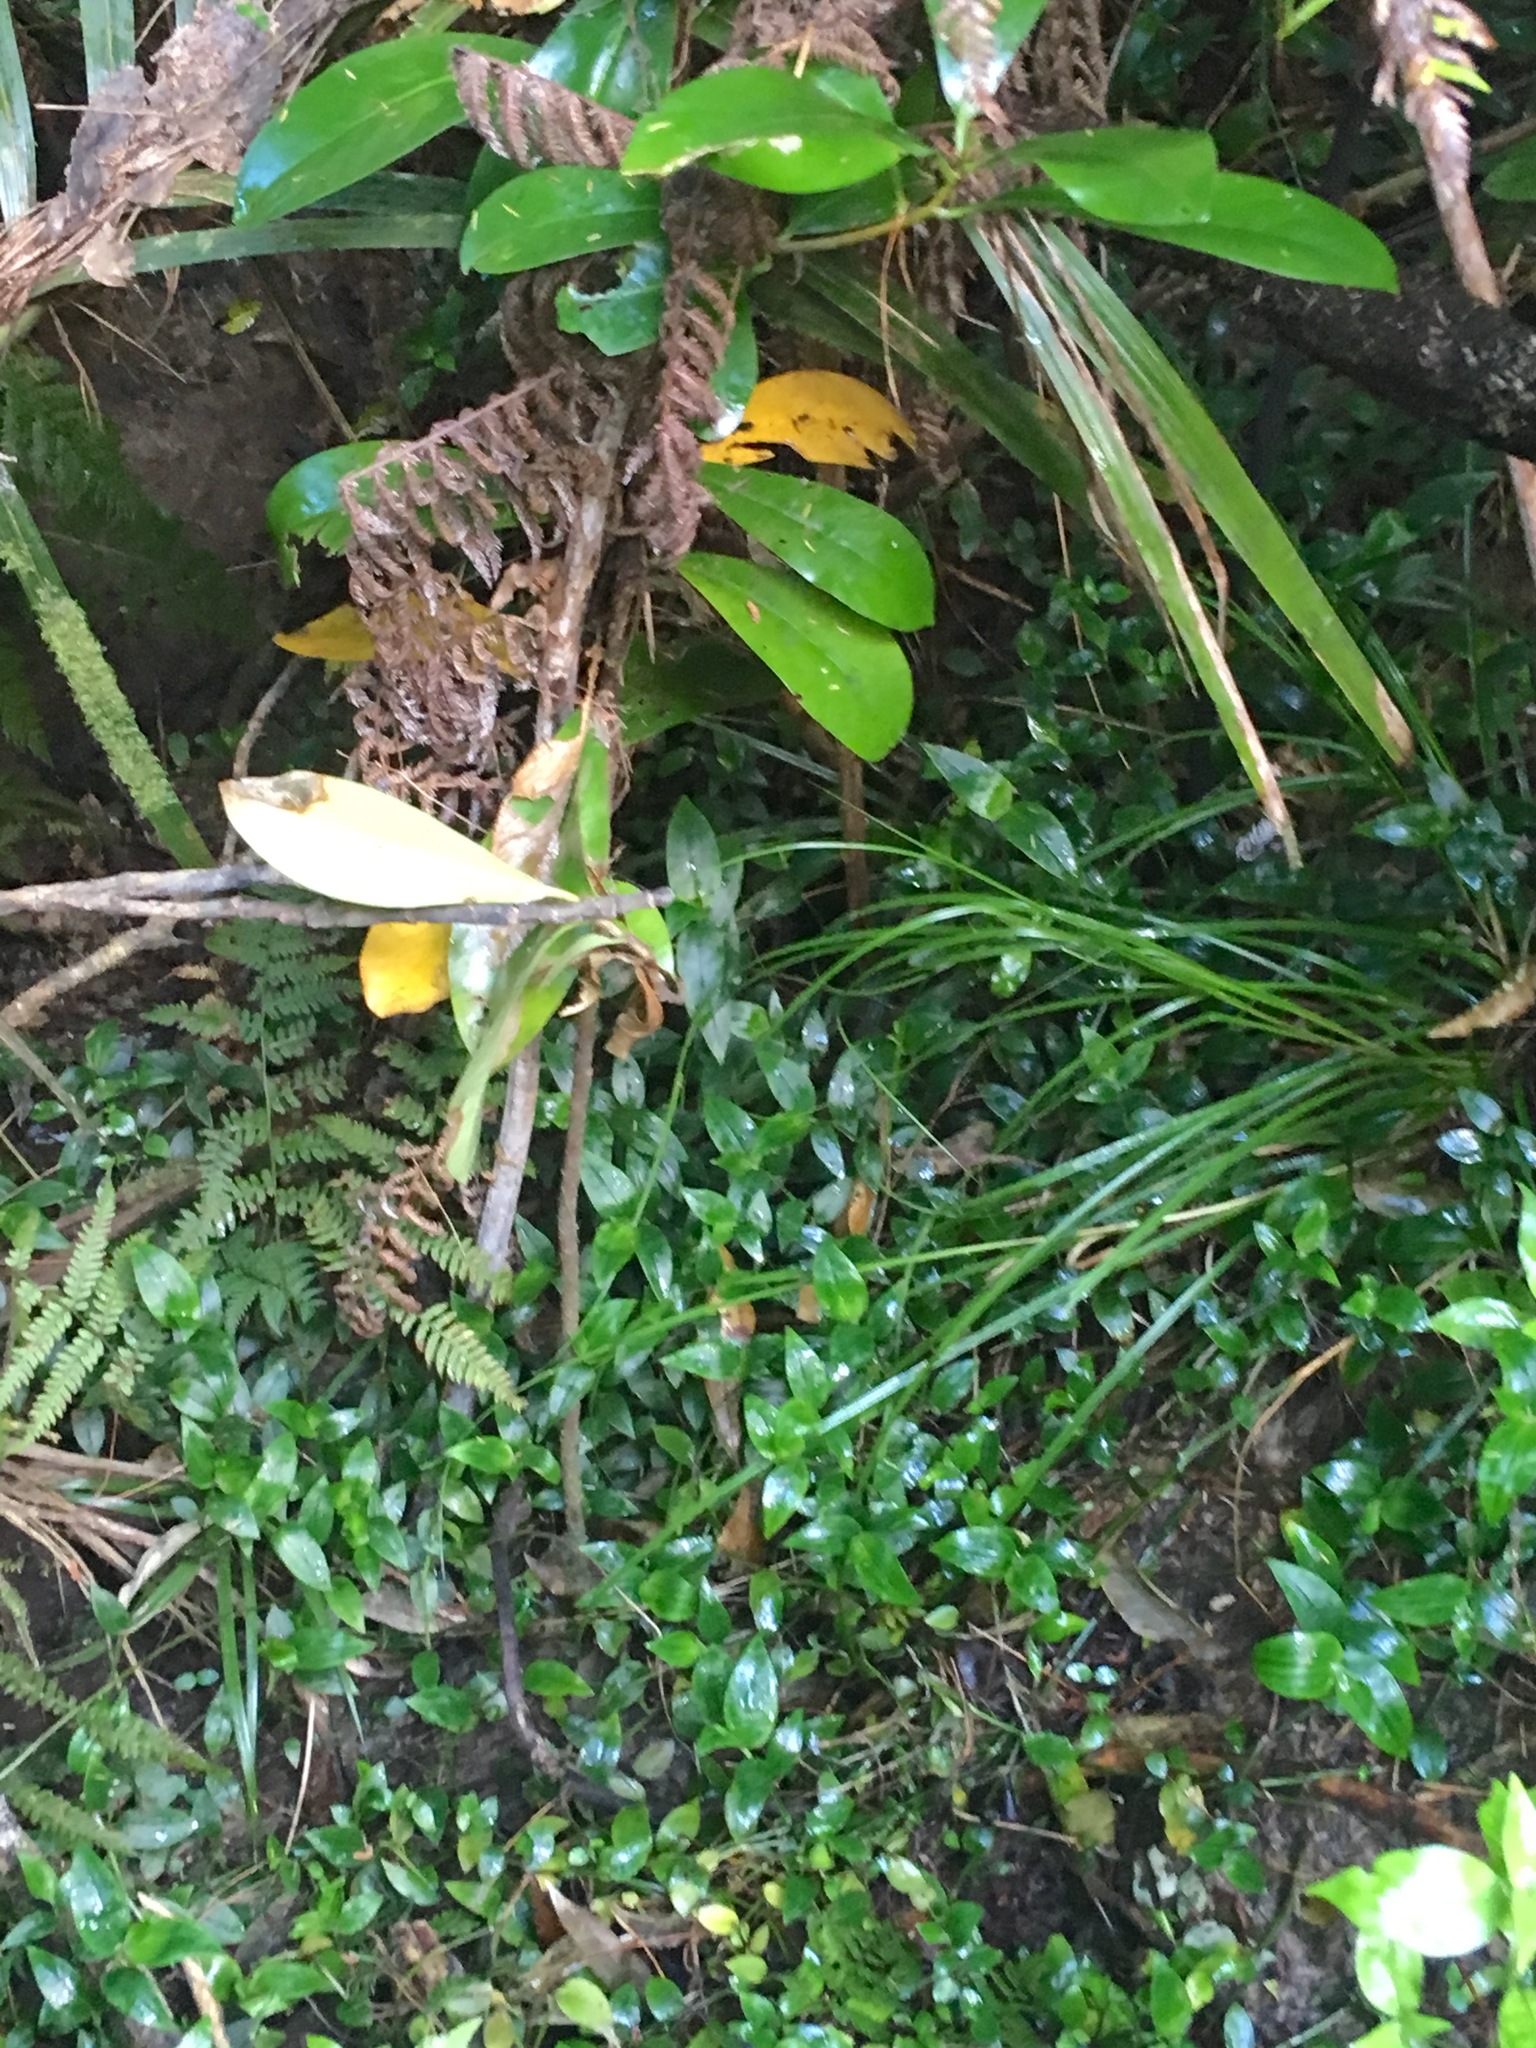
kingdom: Plantae
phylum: Tracheophyta
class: Magnoliopsida
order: Cucurbitales
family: Corynocarpaceae
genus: Corynocarpus
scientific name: Corynocarpus laevigatus
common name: New zealand laurel
